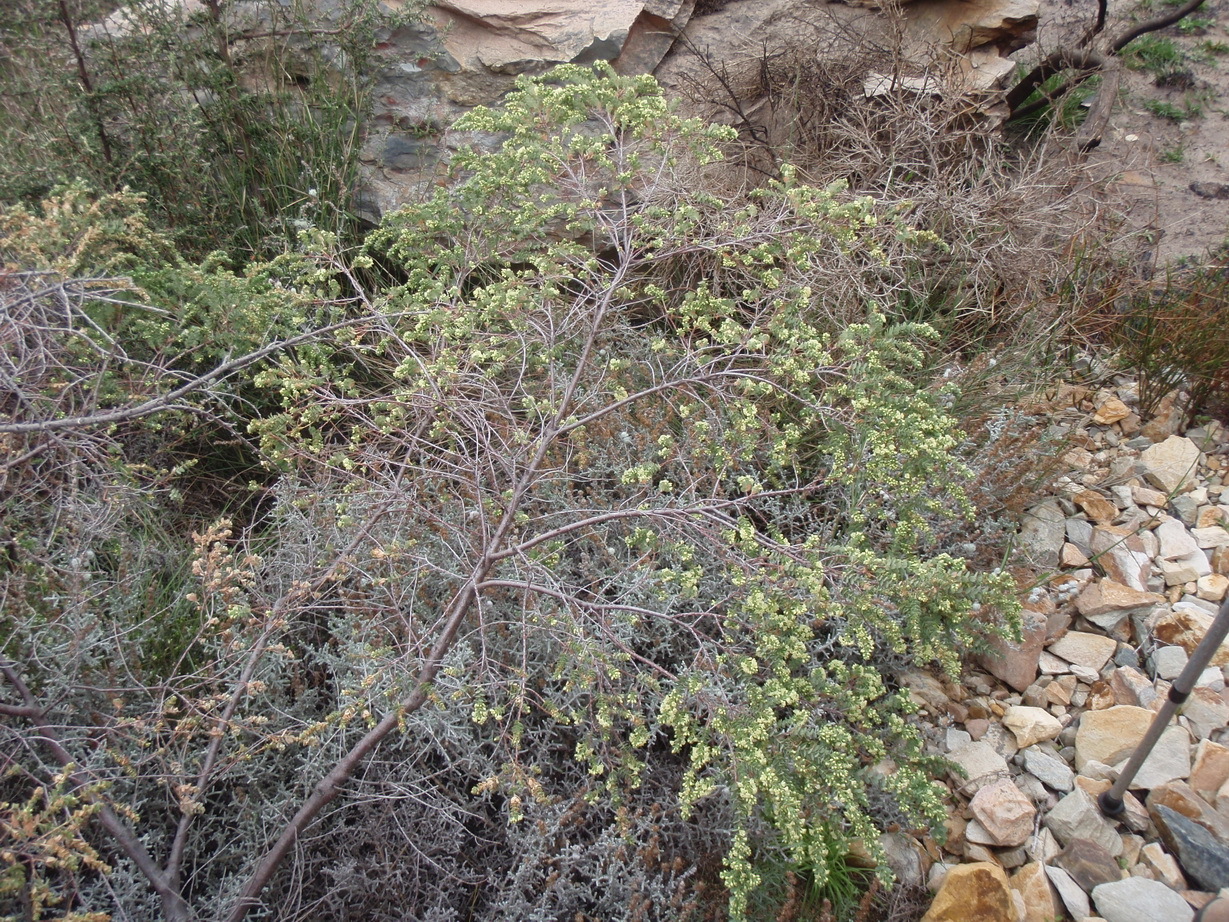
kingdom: Plantae
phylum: Tracheophyta
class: Magnoliopsida
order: Malpighiales
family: Peraceae
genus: Clutia
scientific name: Clutia laxa
